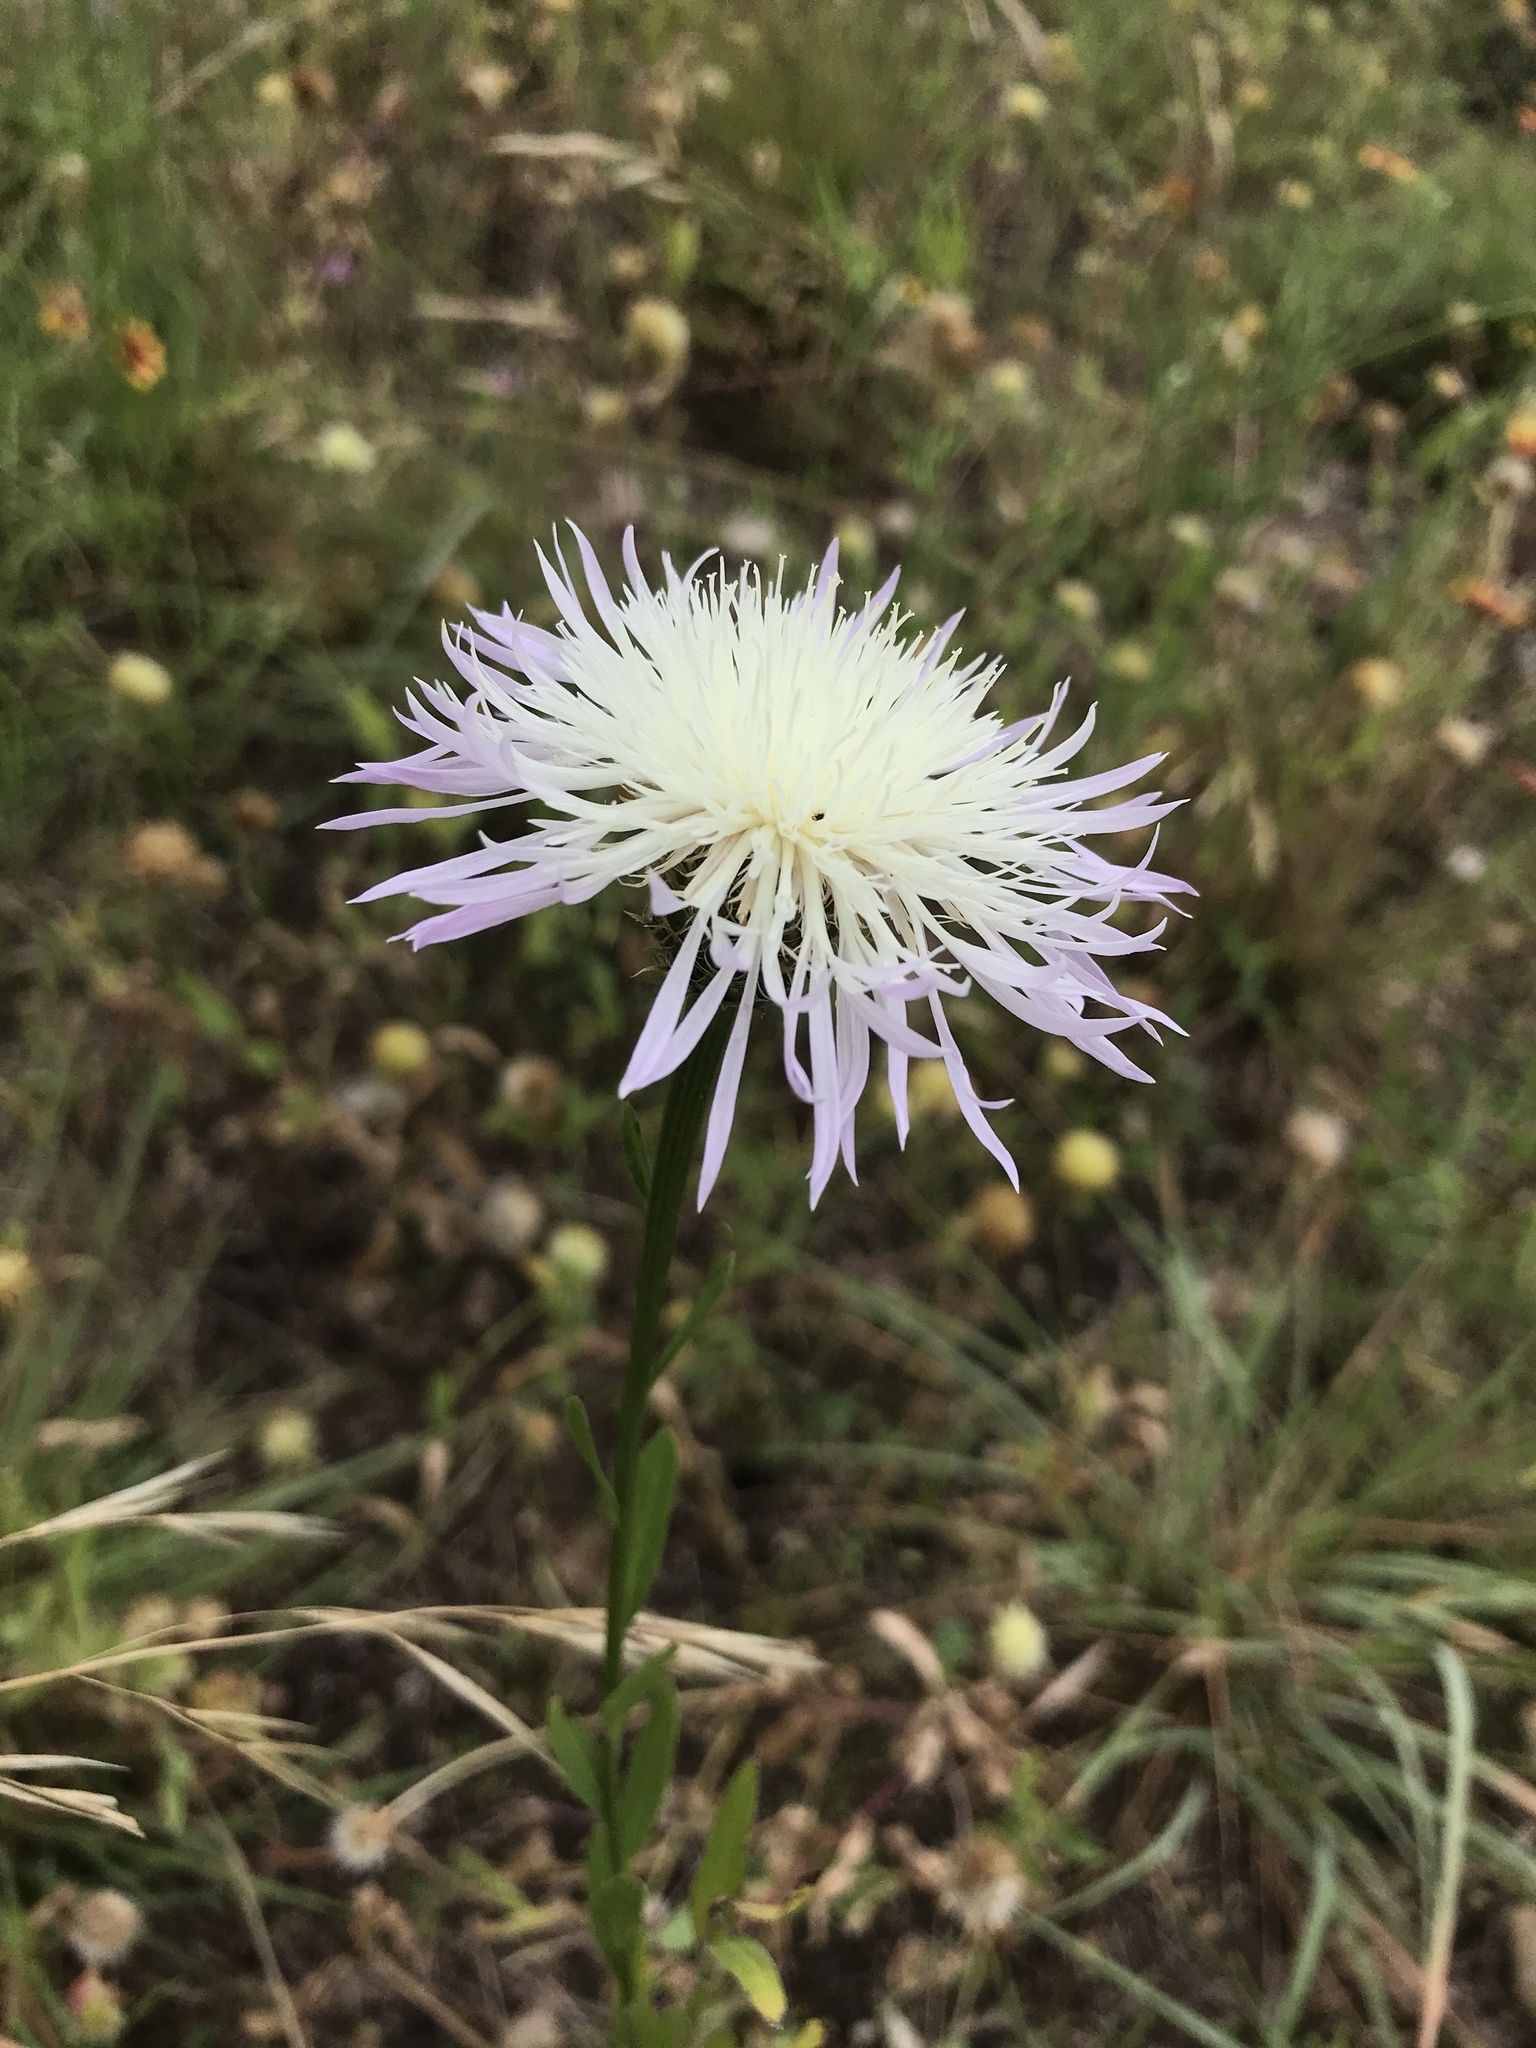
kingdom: Plantae
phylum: Tracheophyta
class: Magnoliopsida
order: Asterales
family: Asteraceae
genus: Plectocephalus
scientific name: Plectocephalus americanus
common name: American basket-flower
